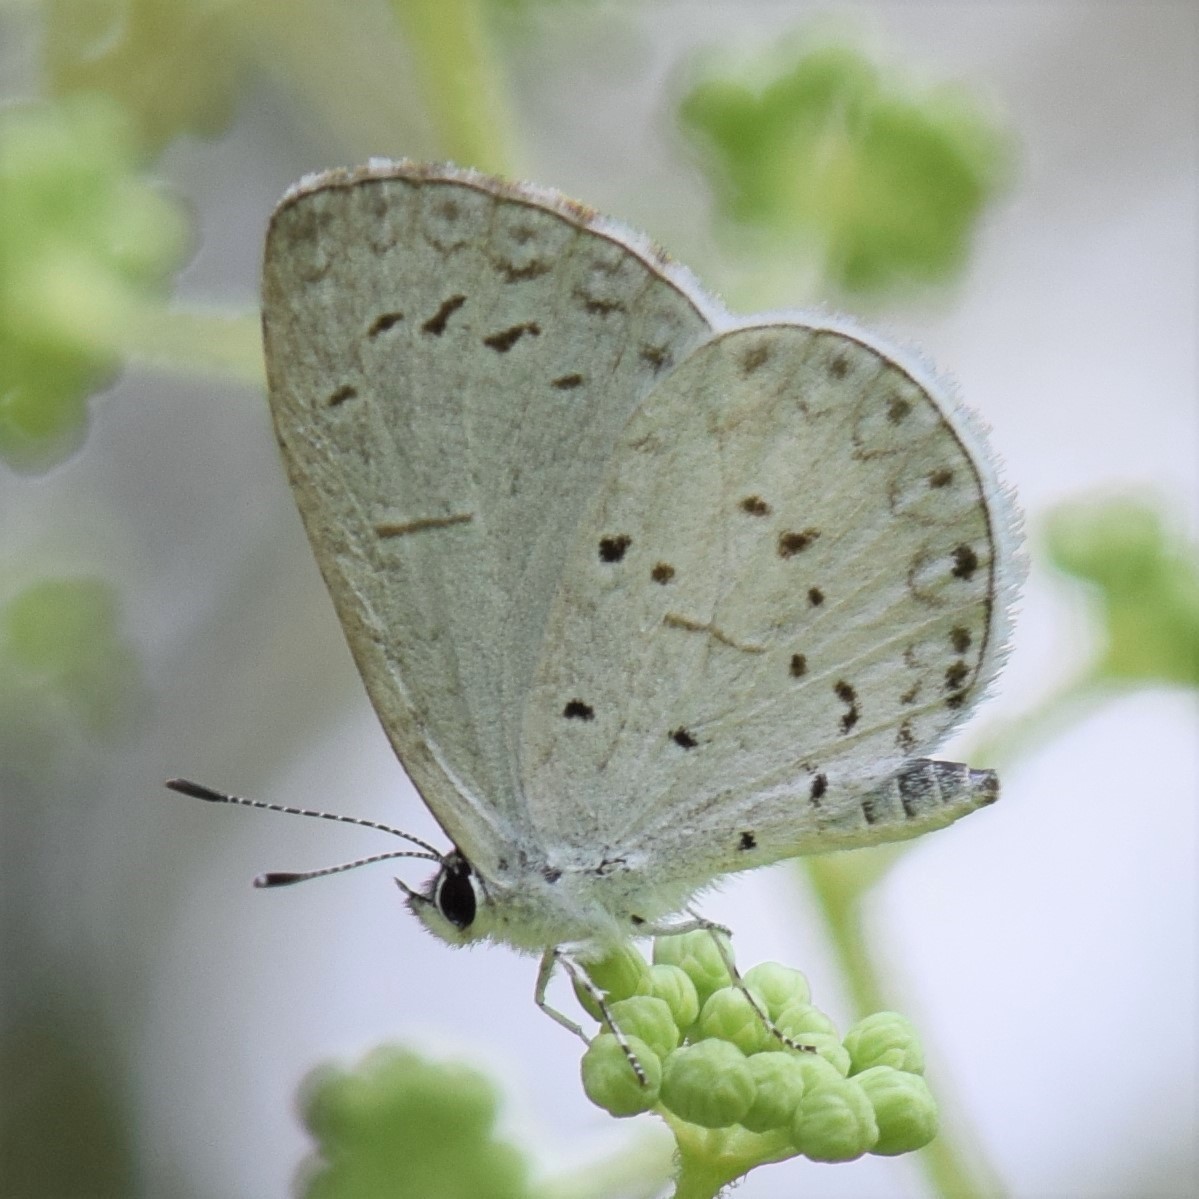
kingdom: Animalia
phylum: Arthropoda
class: Insecta
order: Lepidoptera
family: Lycaenidae
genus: Cyaniris
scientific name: Cyaniris neglecta
